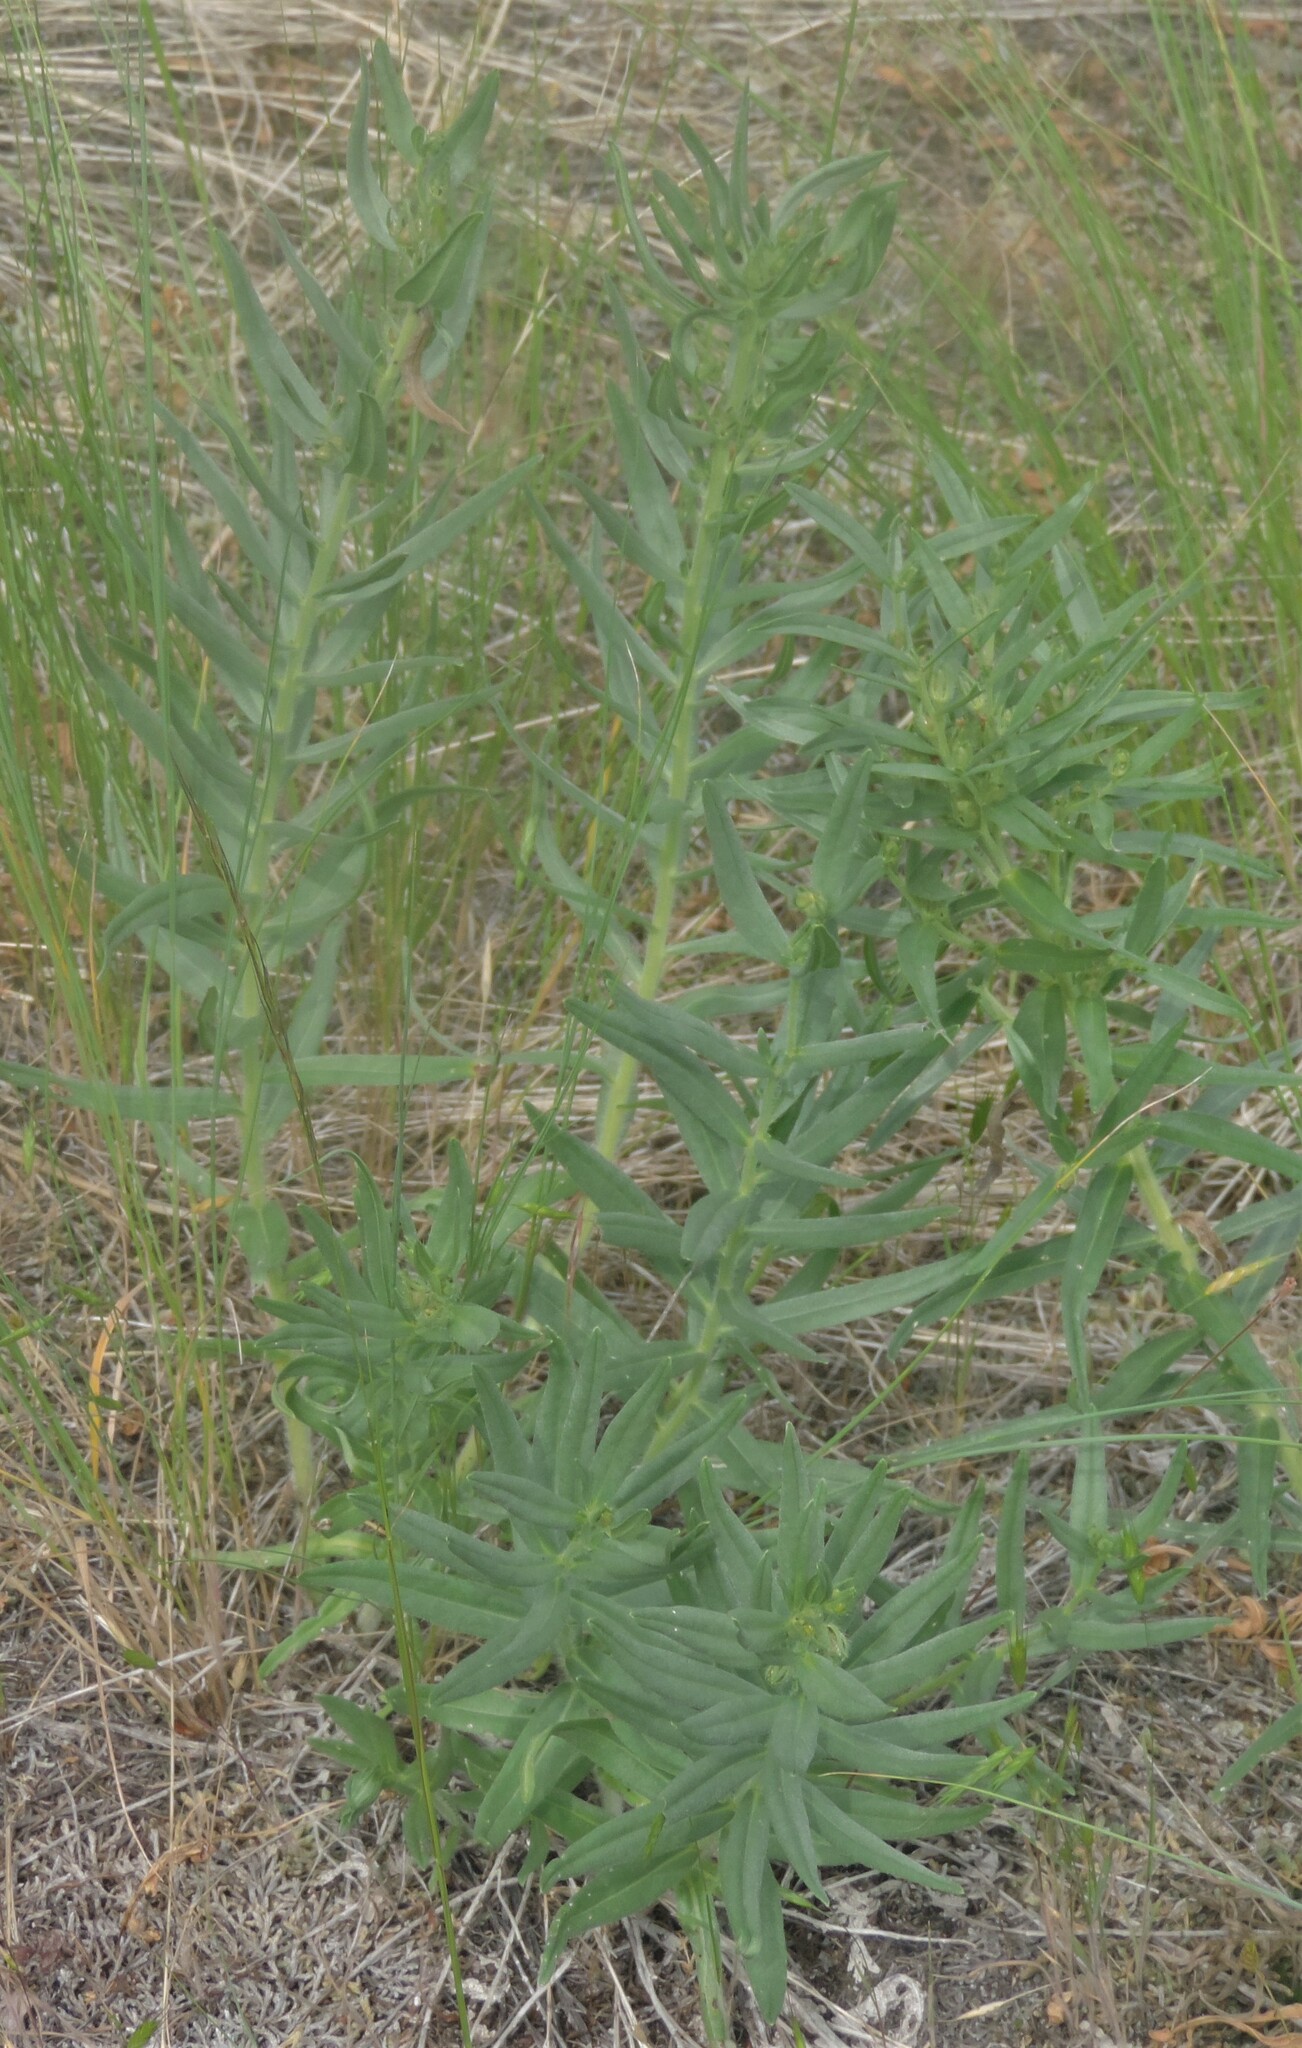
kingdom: Plantae
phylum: Tracheophyta
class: Magnoliopsida
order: Boraginales
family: Boraginaceae
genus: Lithospermum
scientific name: Lithospermum ruderale
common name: Western gromwell
